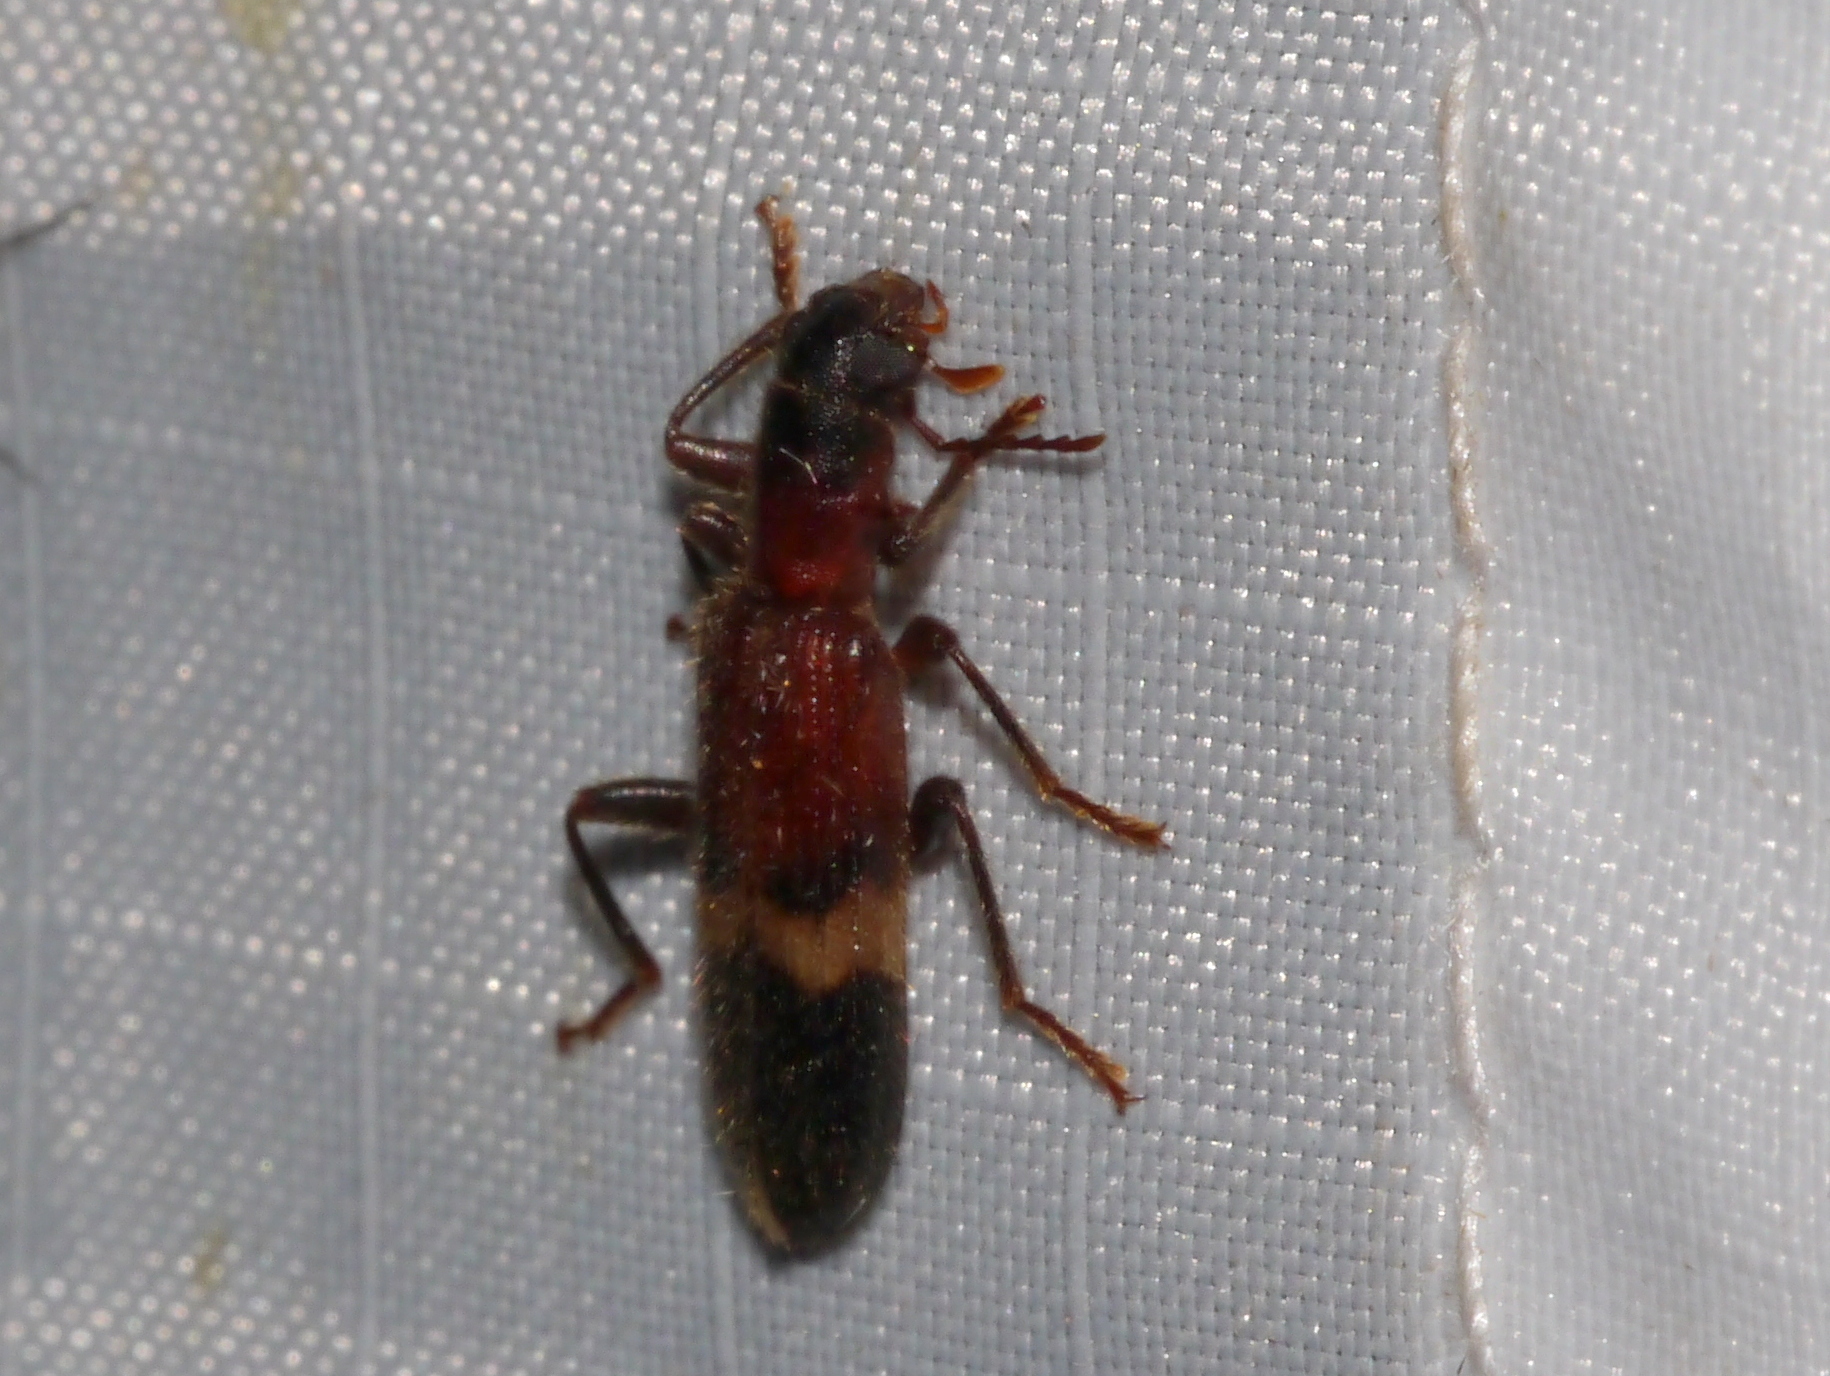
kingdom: Animalia
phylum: Arthropoda
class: Insecta
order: Coleoptera
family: Cleridae
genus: Cymatodera
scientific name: Cymatodera tricolor
